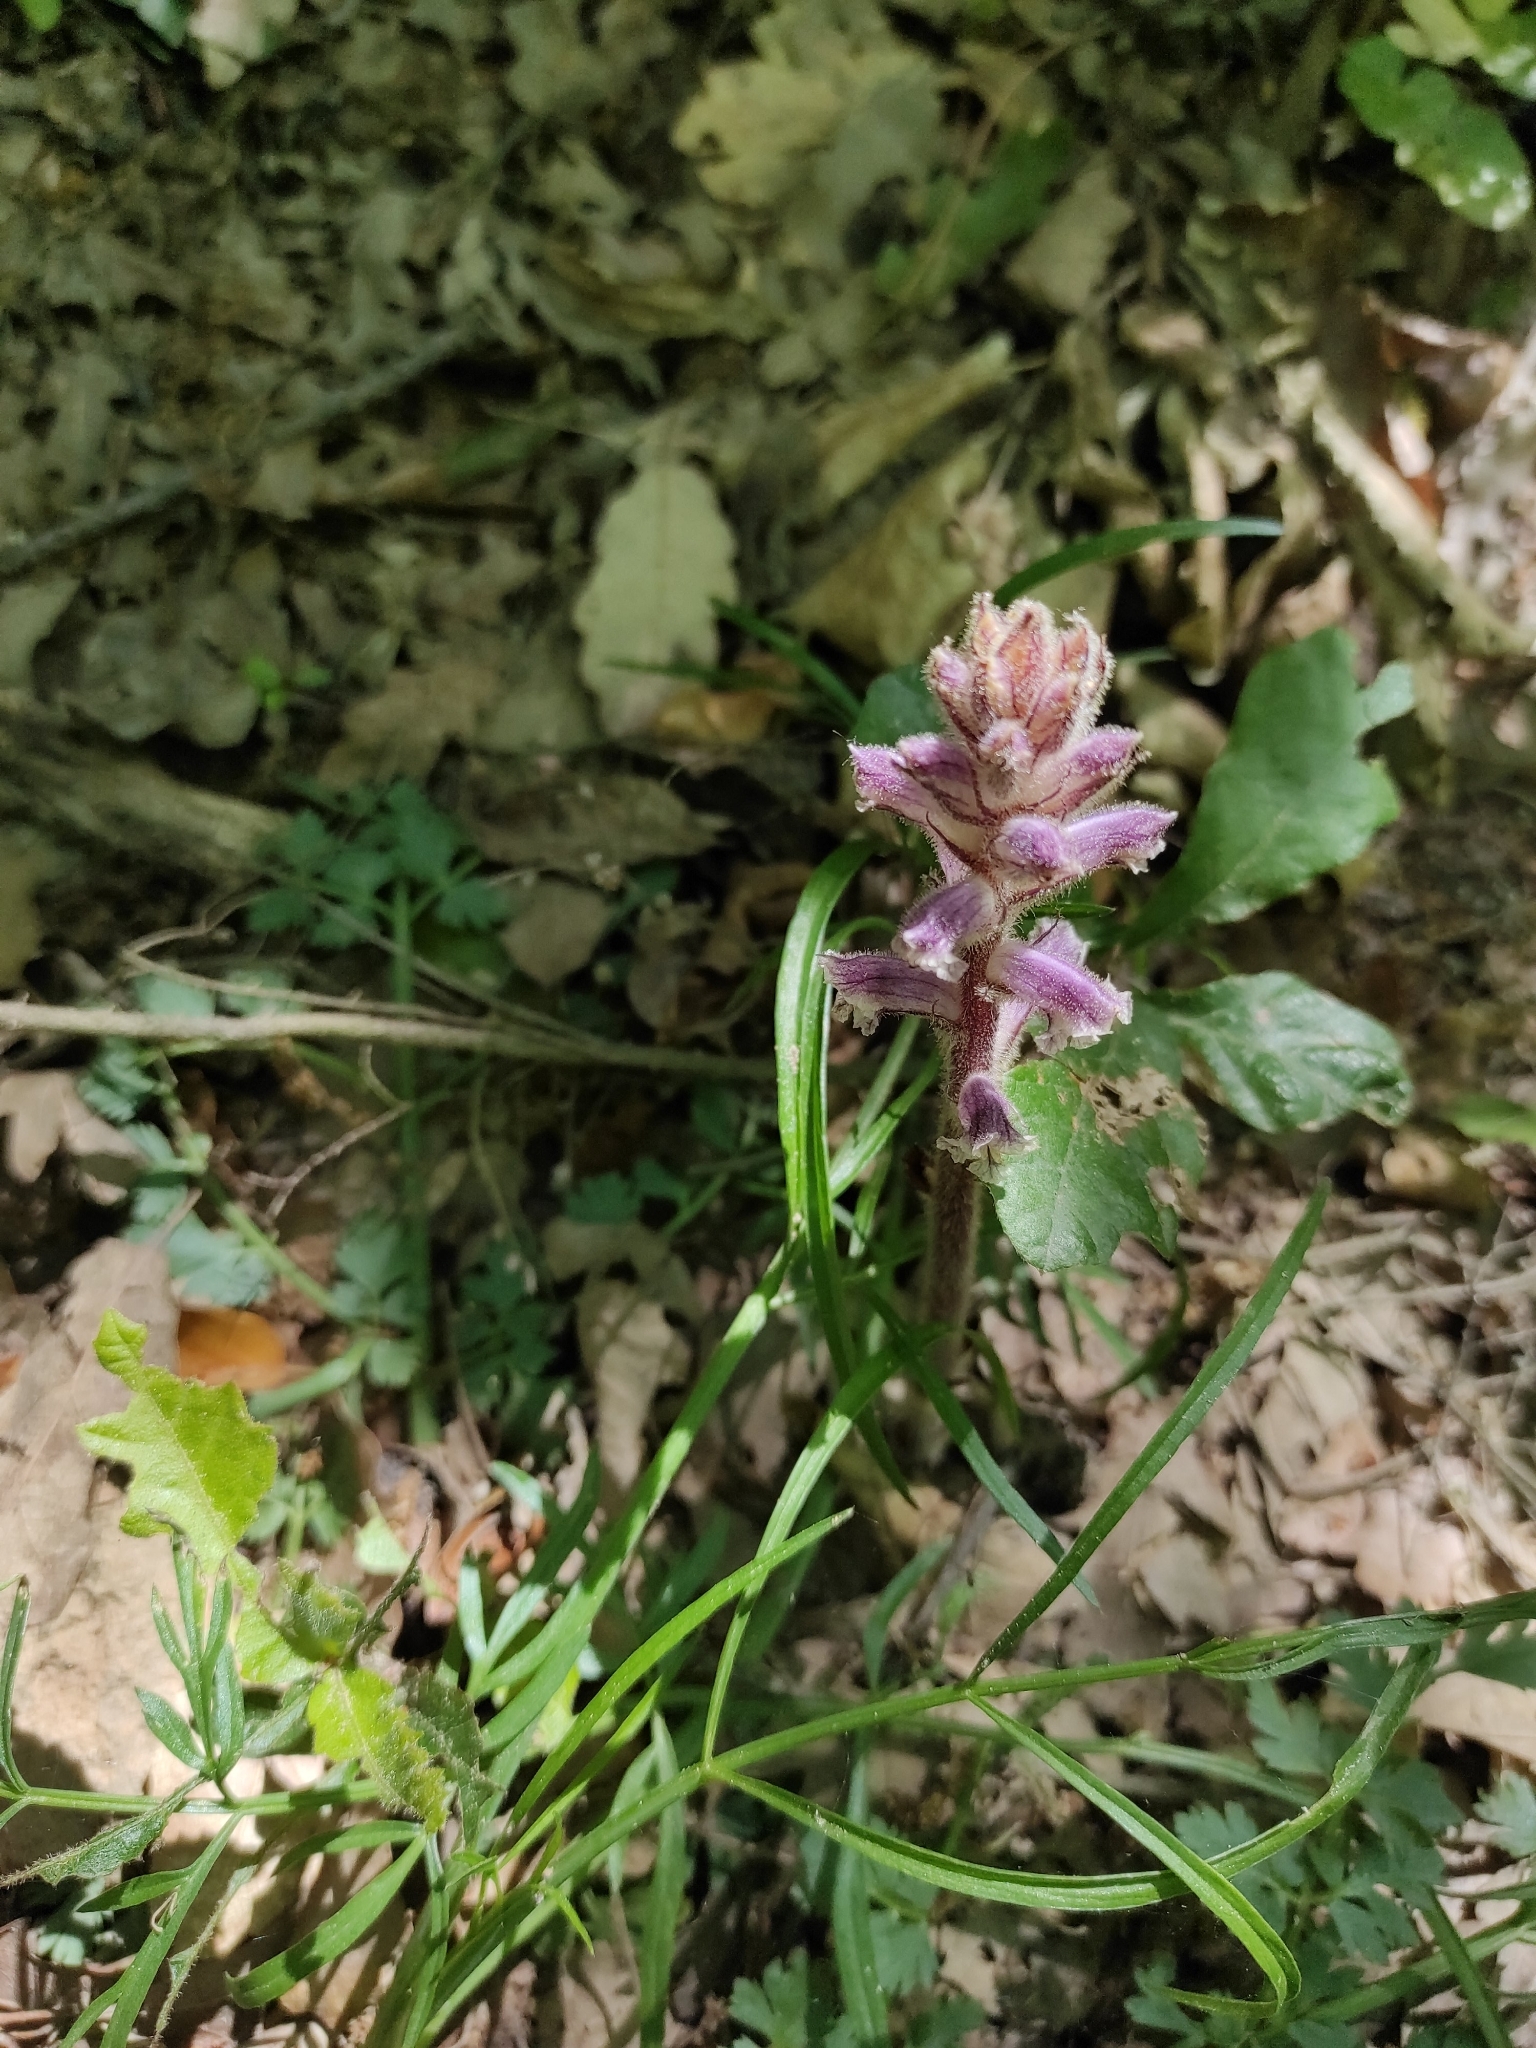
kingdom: Plantae
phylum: Tracheophyta
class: Magnoliopsida
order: Lamiales
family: Orobanchaceae
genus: Orobanche
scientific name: Orobanche minor
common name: Common broomrape
